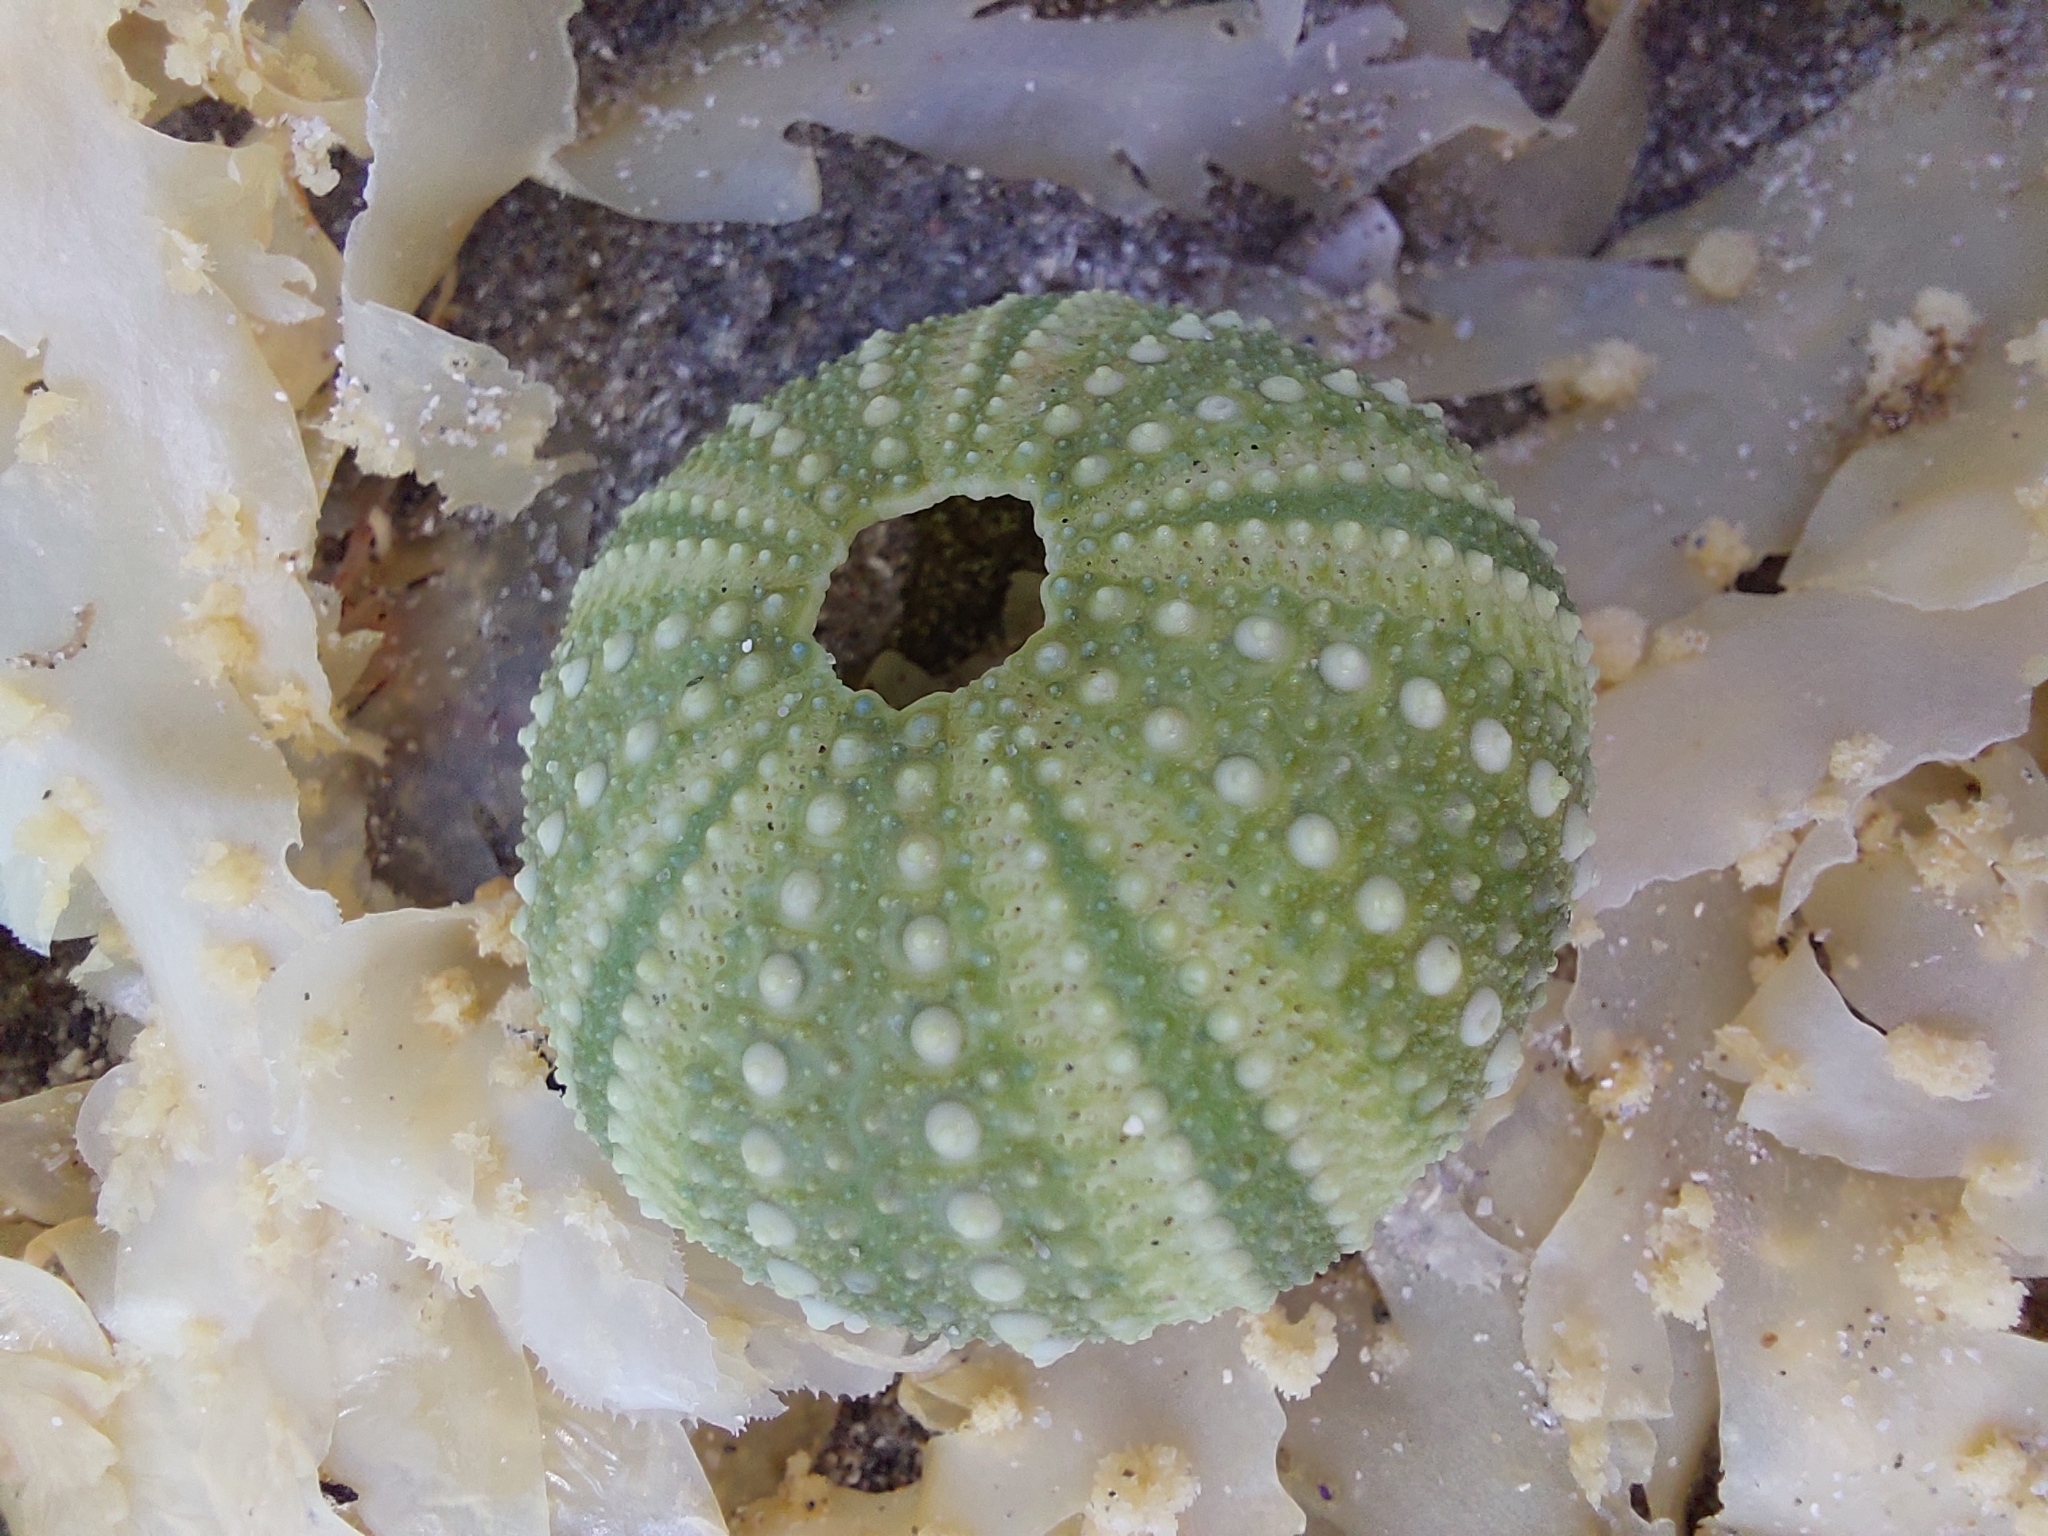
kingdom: Animalia
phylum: Echinodermata
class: Echinoidea
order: Camarodonta
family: Parechinidae
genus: Parechinus
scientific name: Parechinus angulosus
